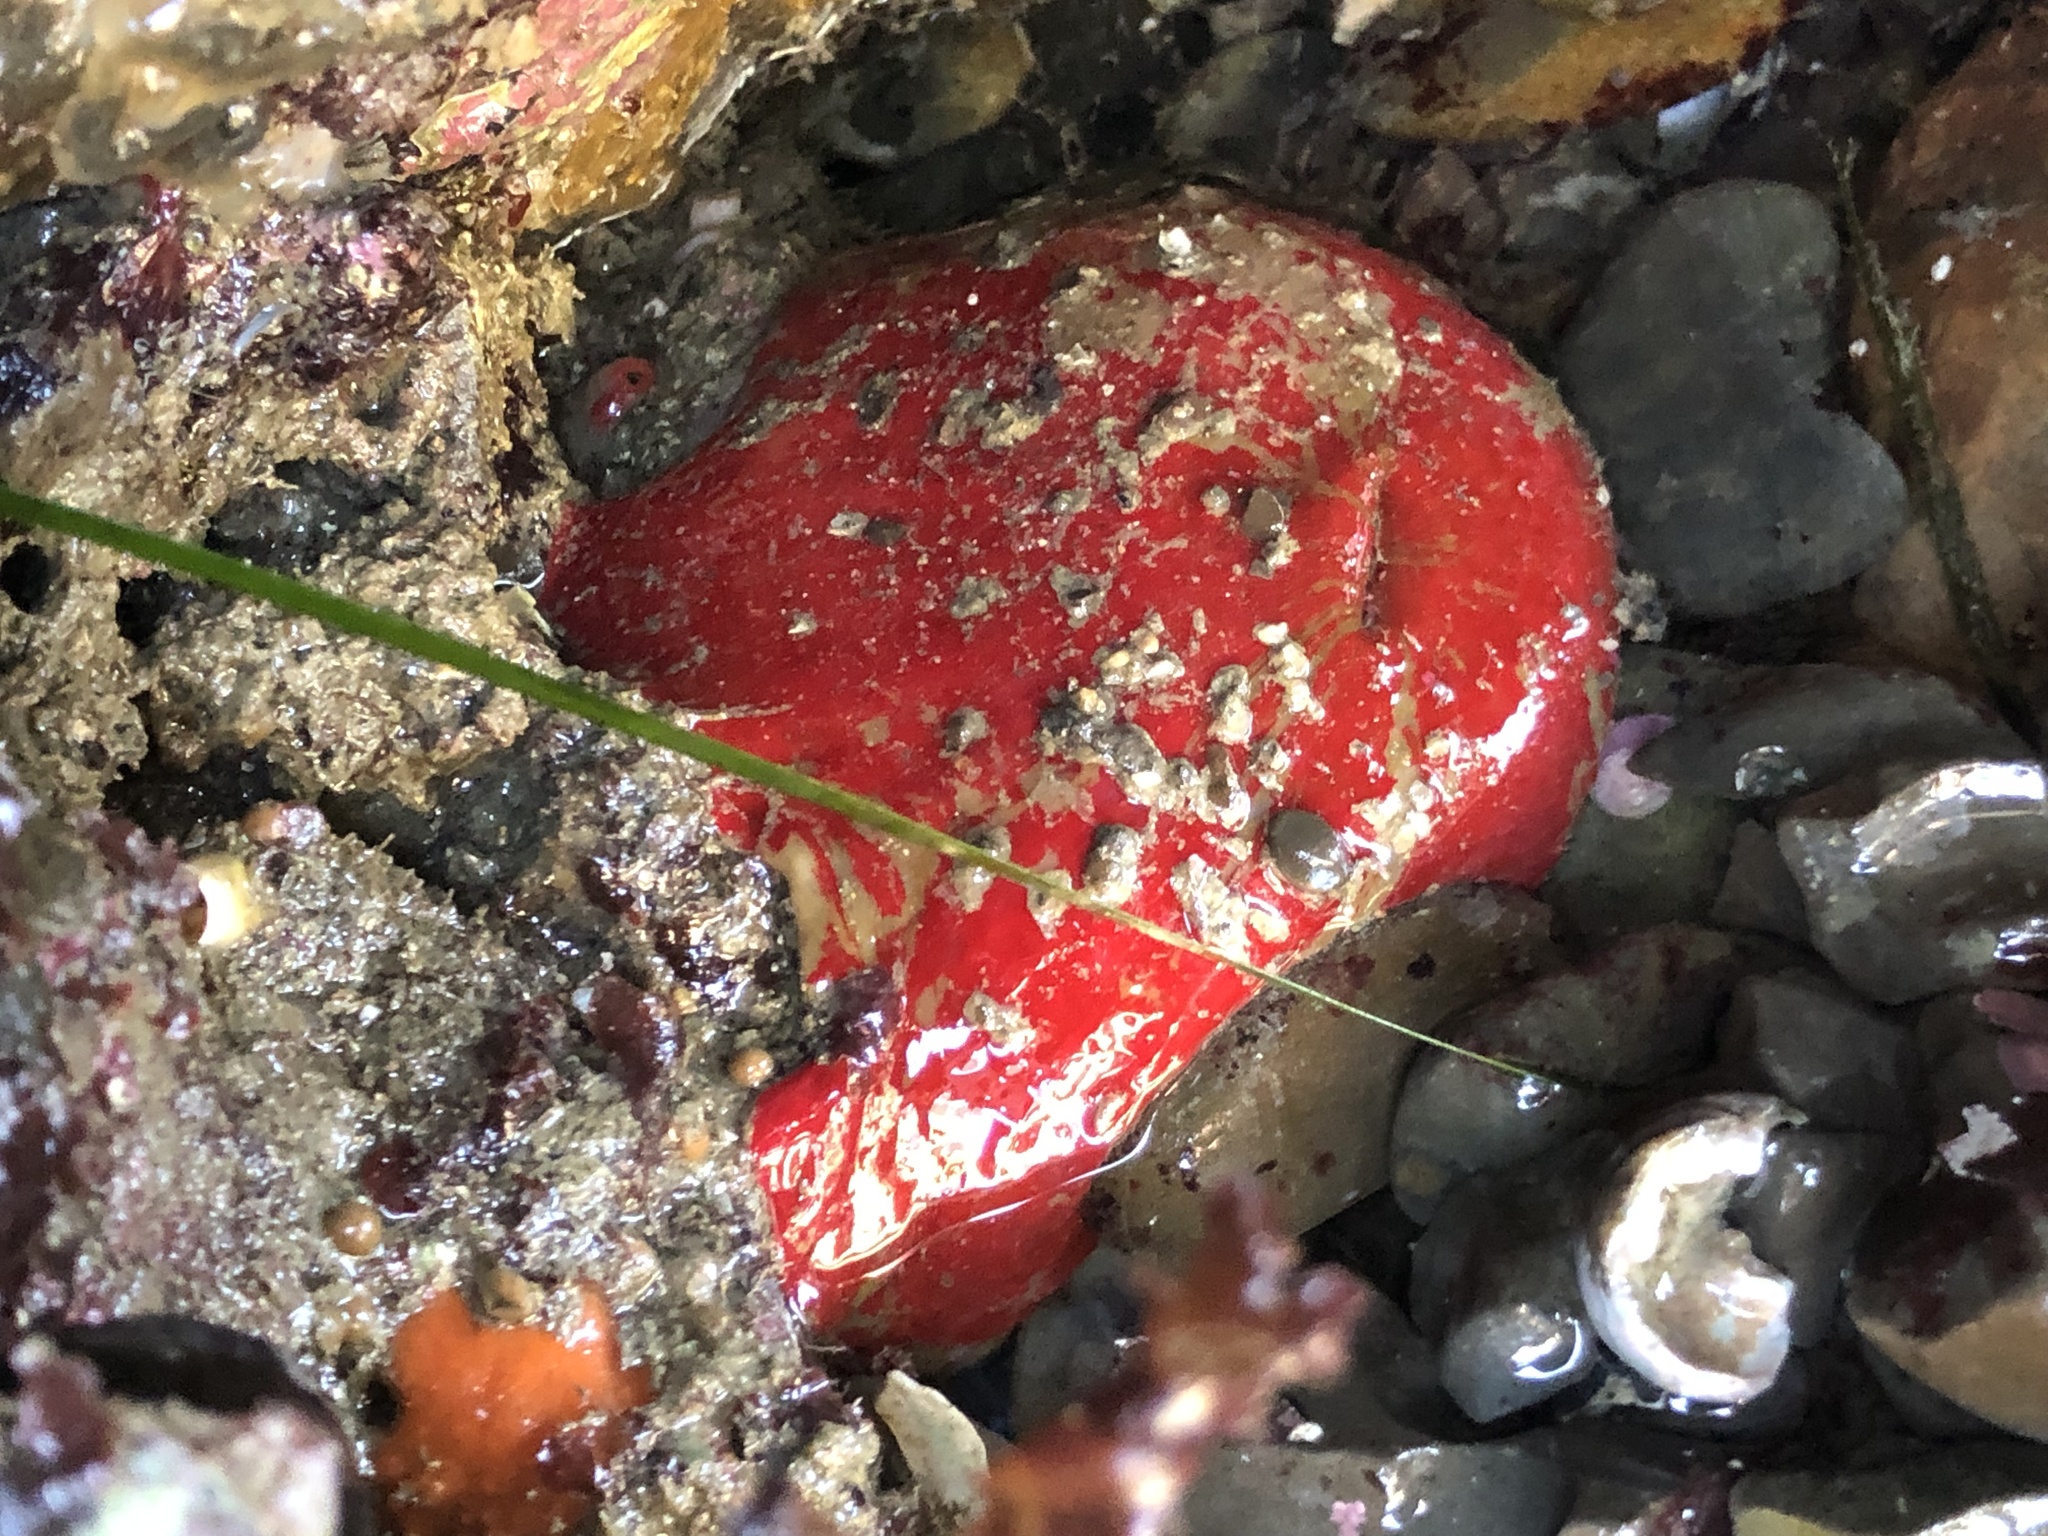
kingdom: Animalia
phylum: Cnidaria
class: Anthozoa
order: Actiniaria
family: Actiniidae
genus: Urticina
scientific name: Urticina grebelnyi
